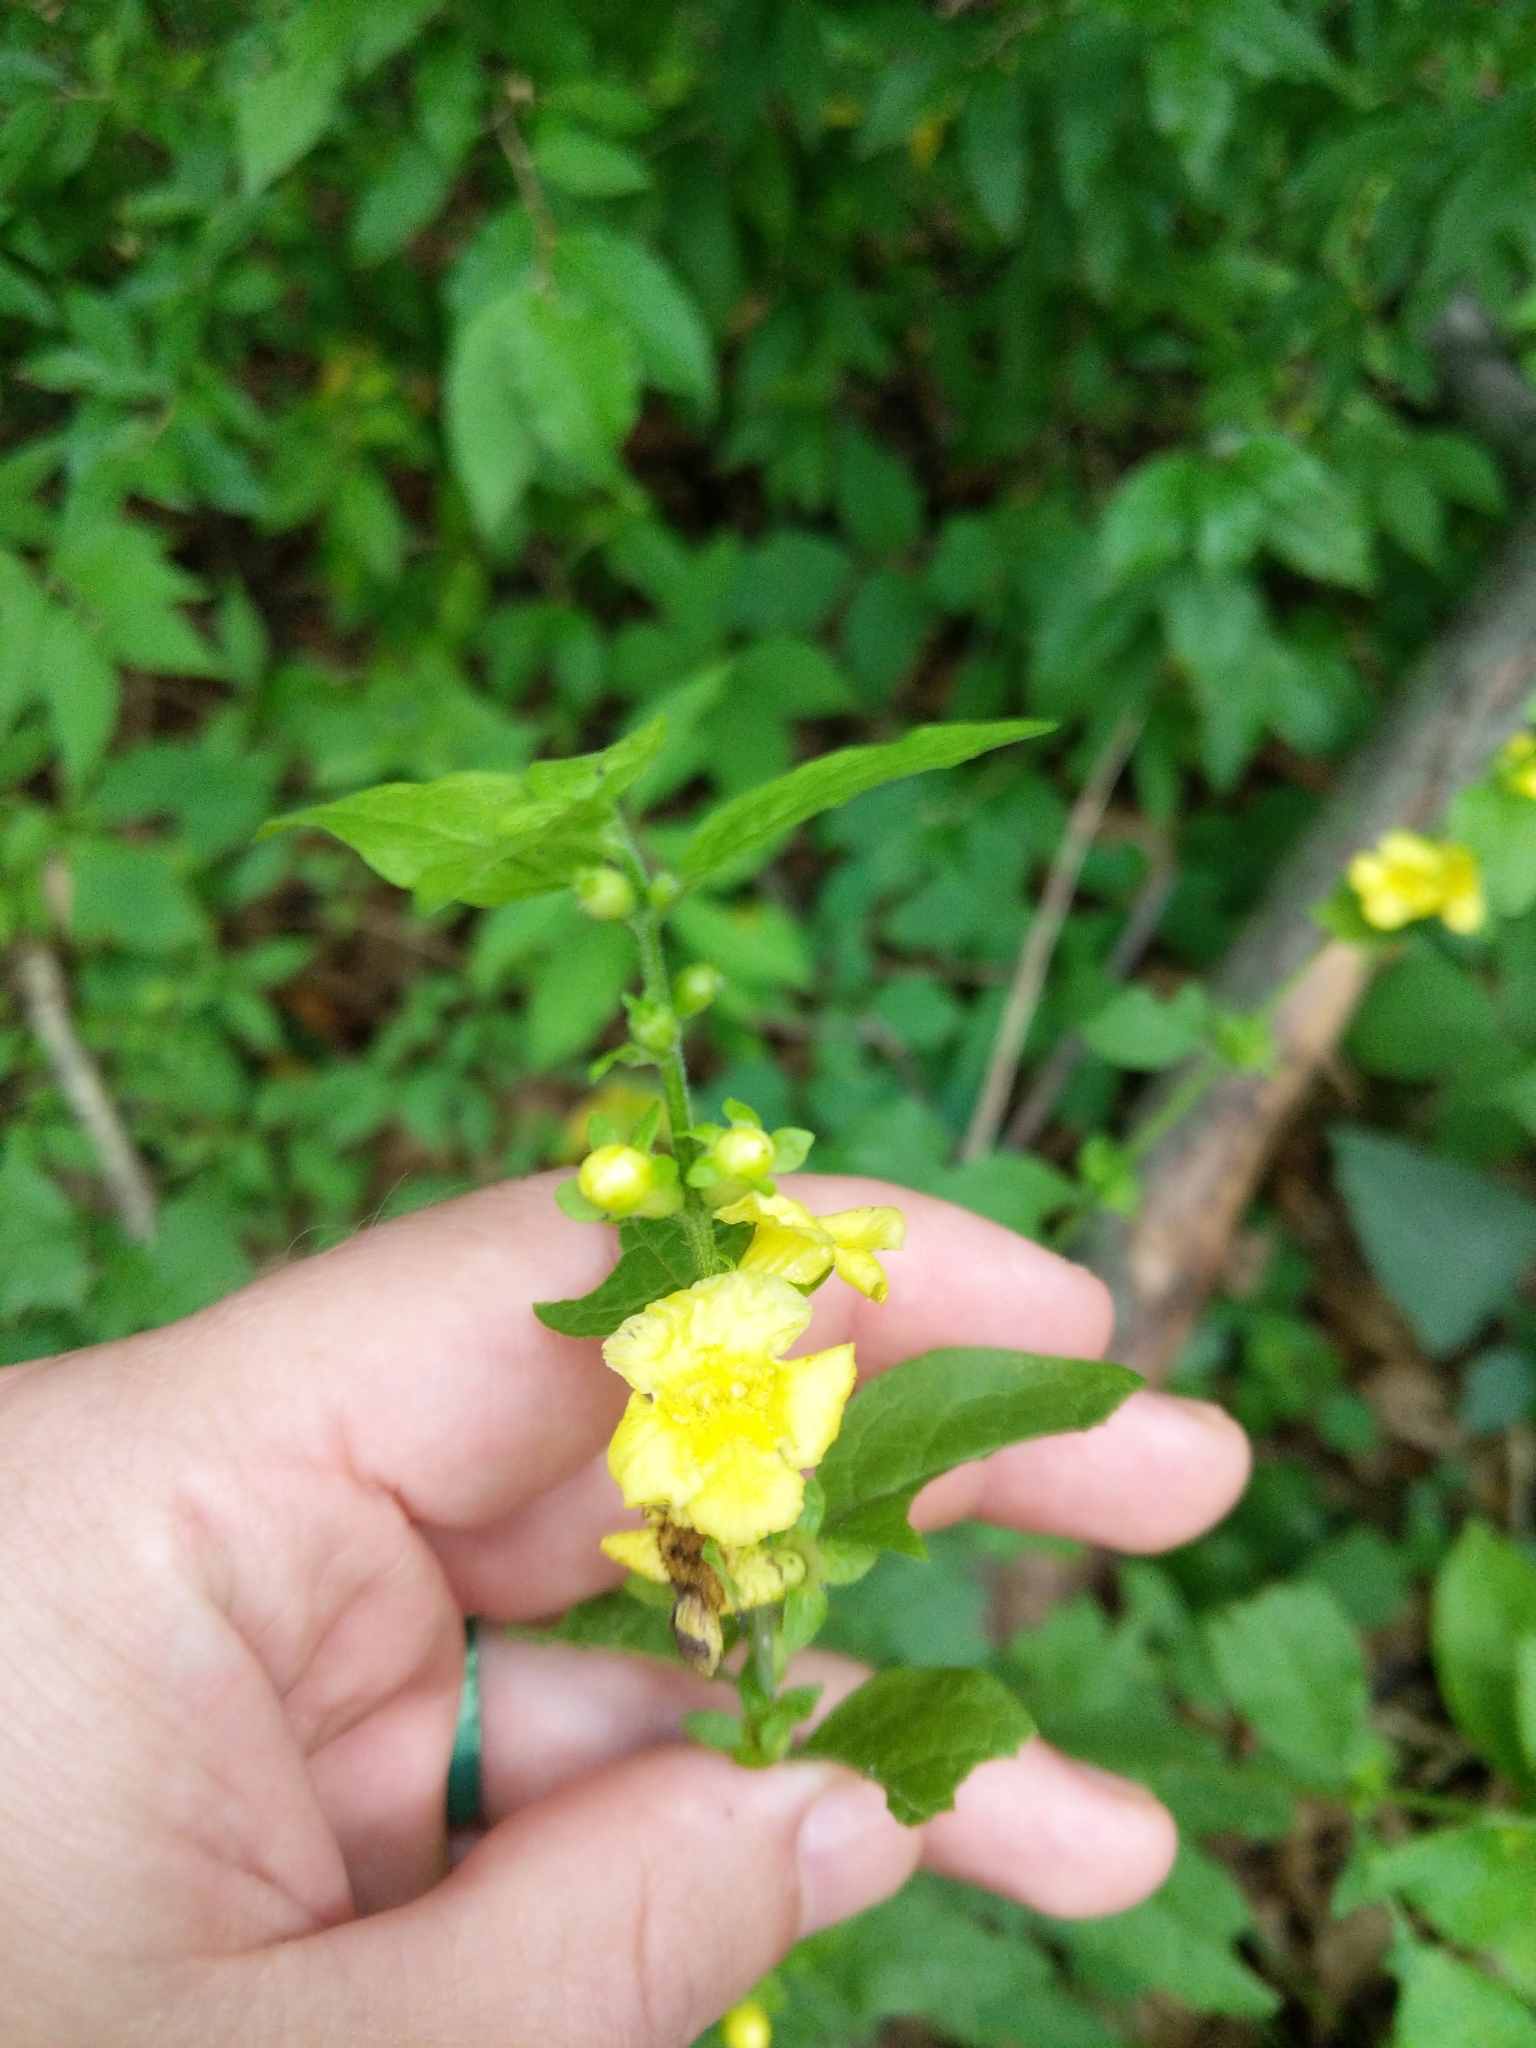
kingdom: Plantae
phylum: Tracheophyta
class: Magnoliopsida
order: Lamiales
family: Orobanchaceae
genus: Dasistoma
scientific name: Dasistoma macrophyllum
